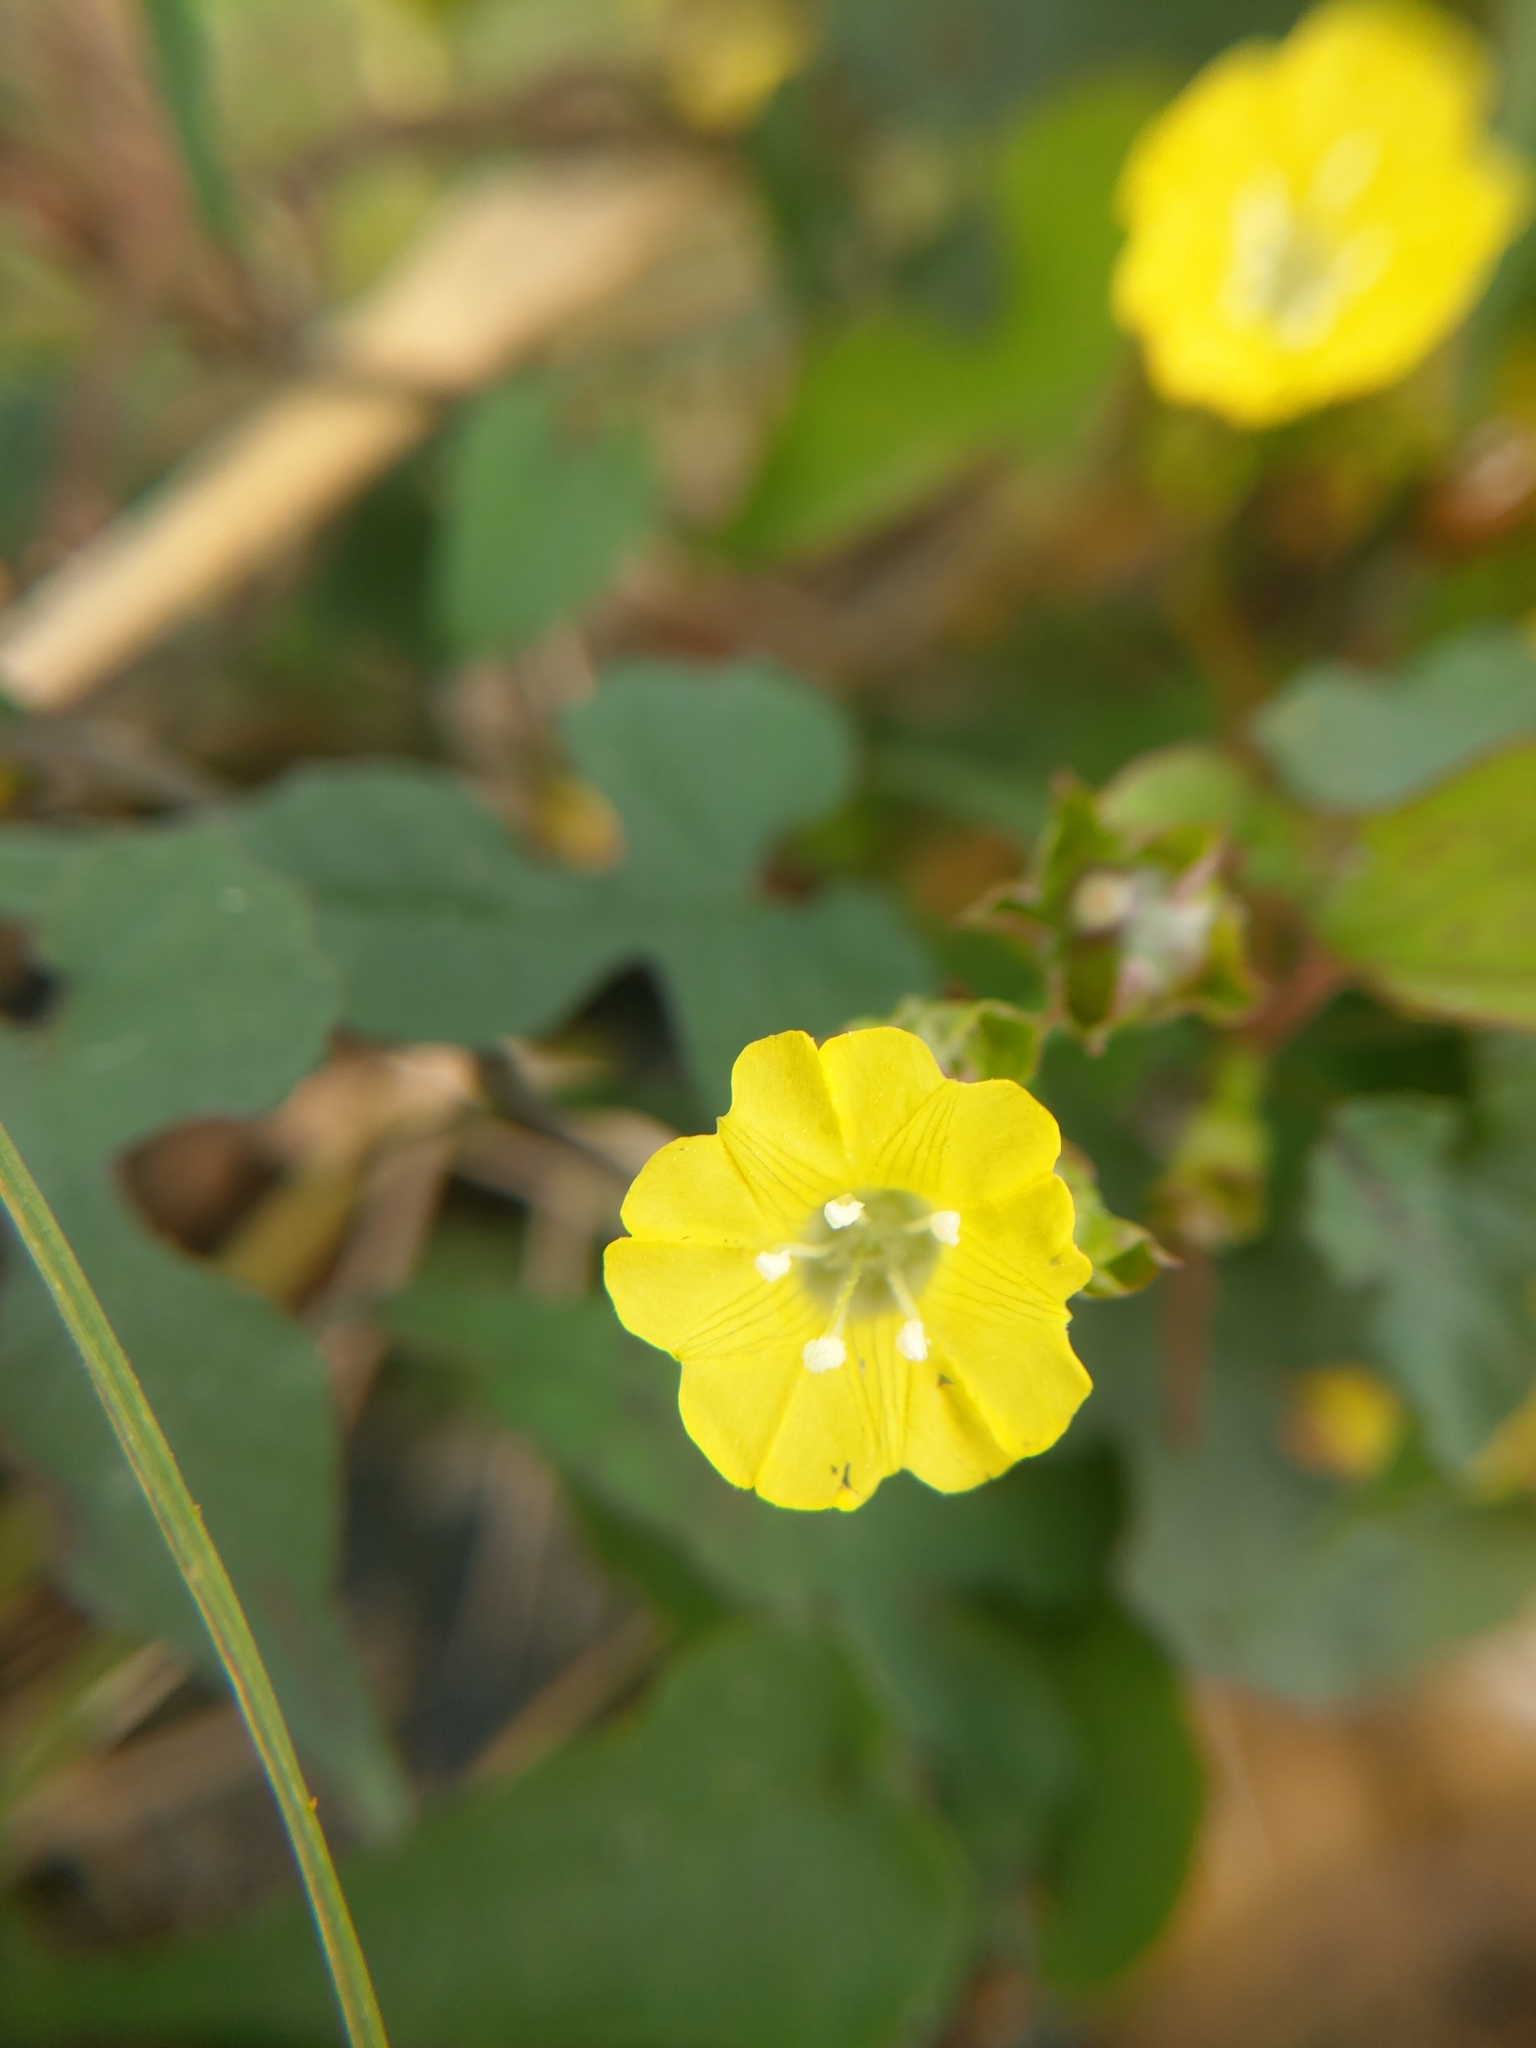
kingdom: Plantae
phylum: Tracheophyta
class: Magnoliopsida
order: Solanales
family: Convolvulaceae
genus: Merremia
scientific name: Merremia hederacea
